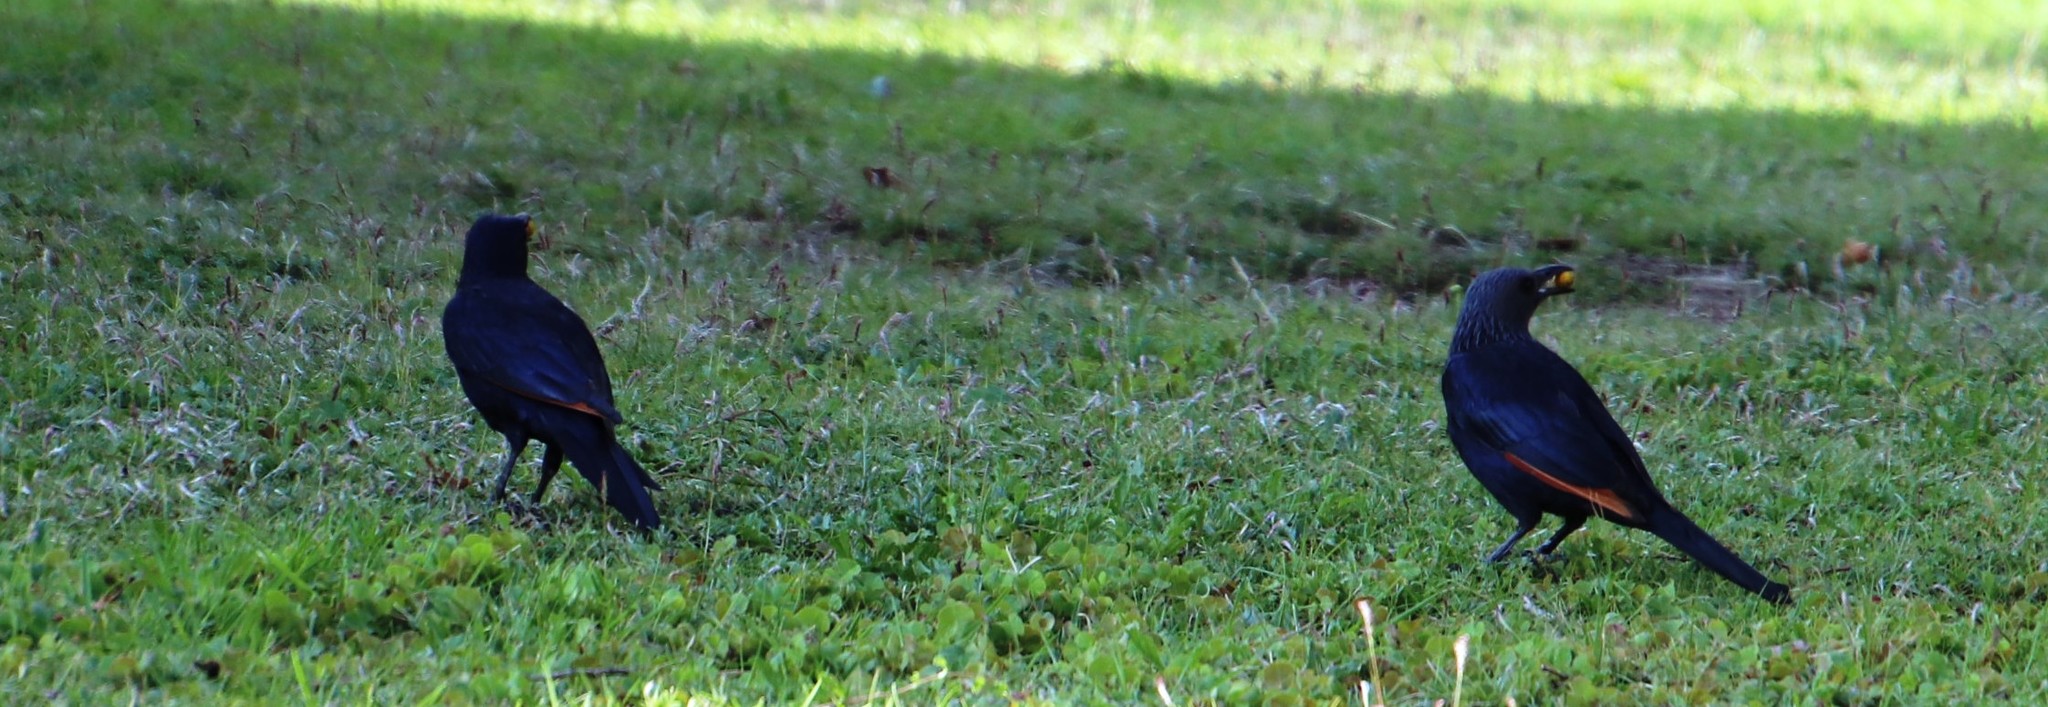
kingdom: Animalia
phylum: Chordata
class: Aves
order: Passeriformes
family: Sturnidae
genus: Onychognathus
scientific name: Onychognathus morio
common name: Red-winged starling
